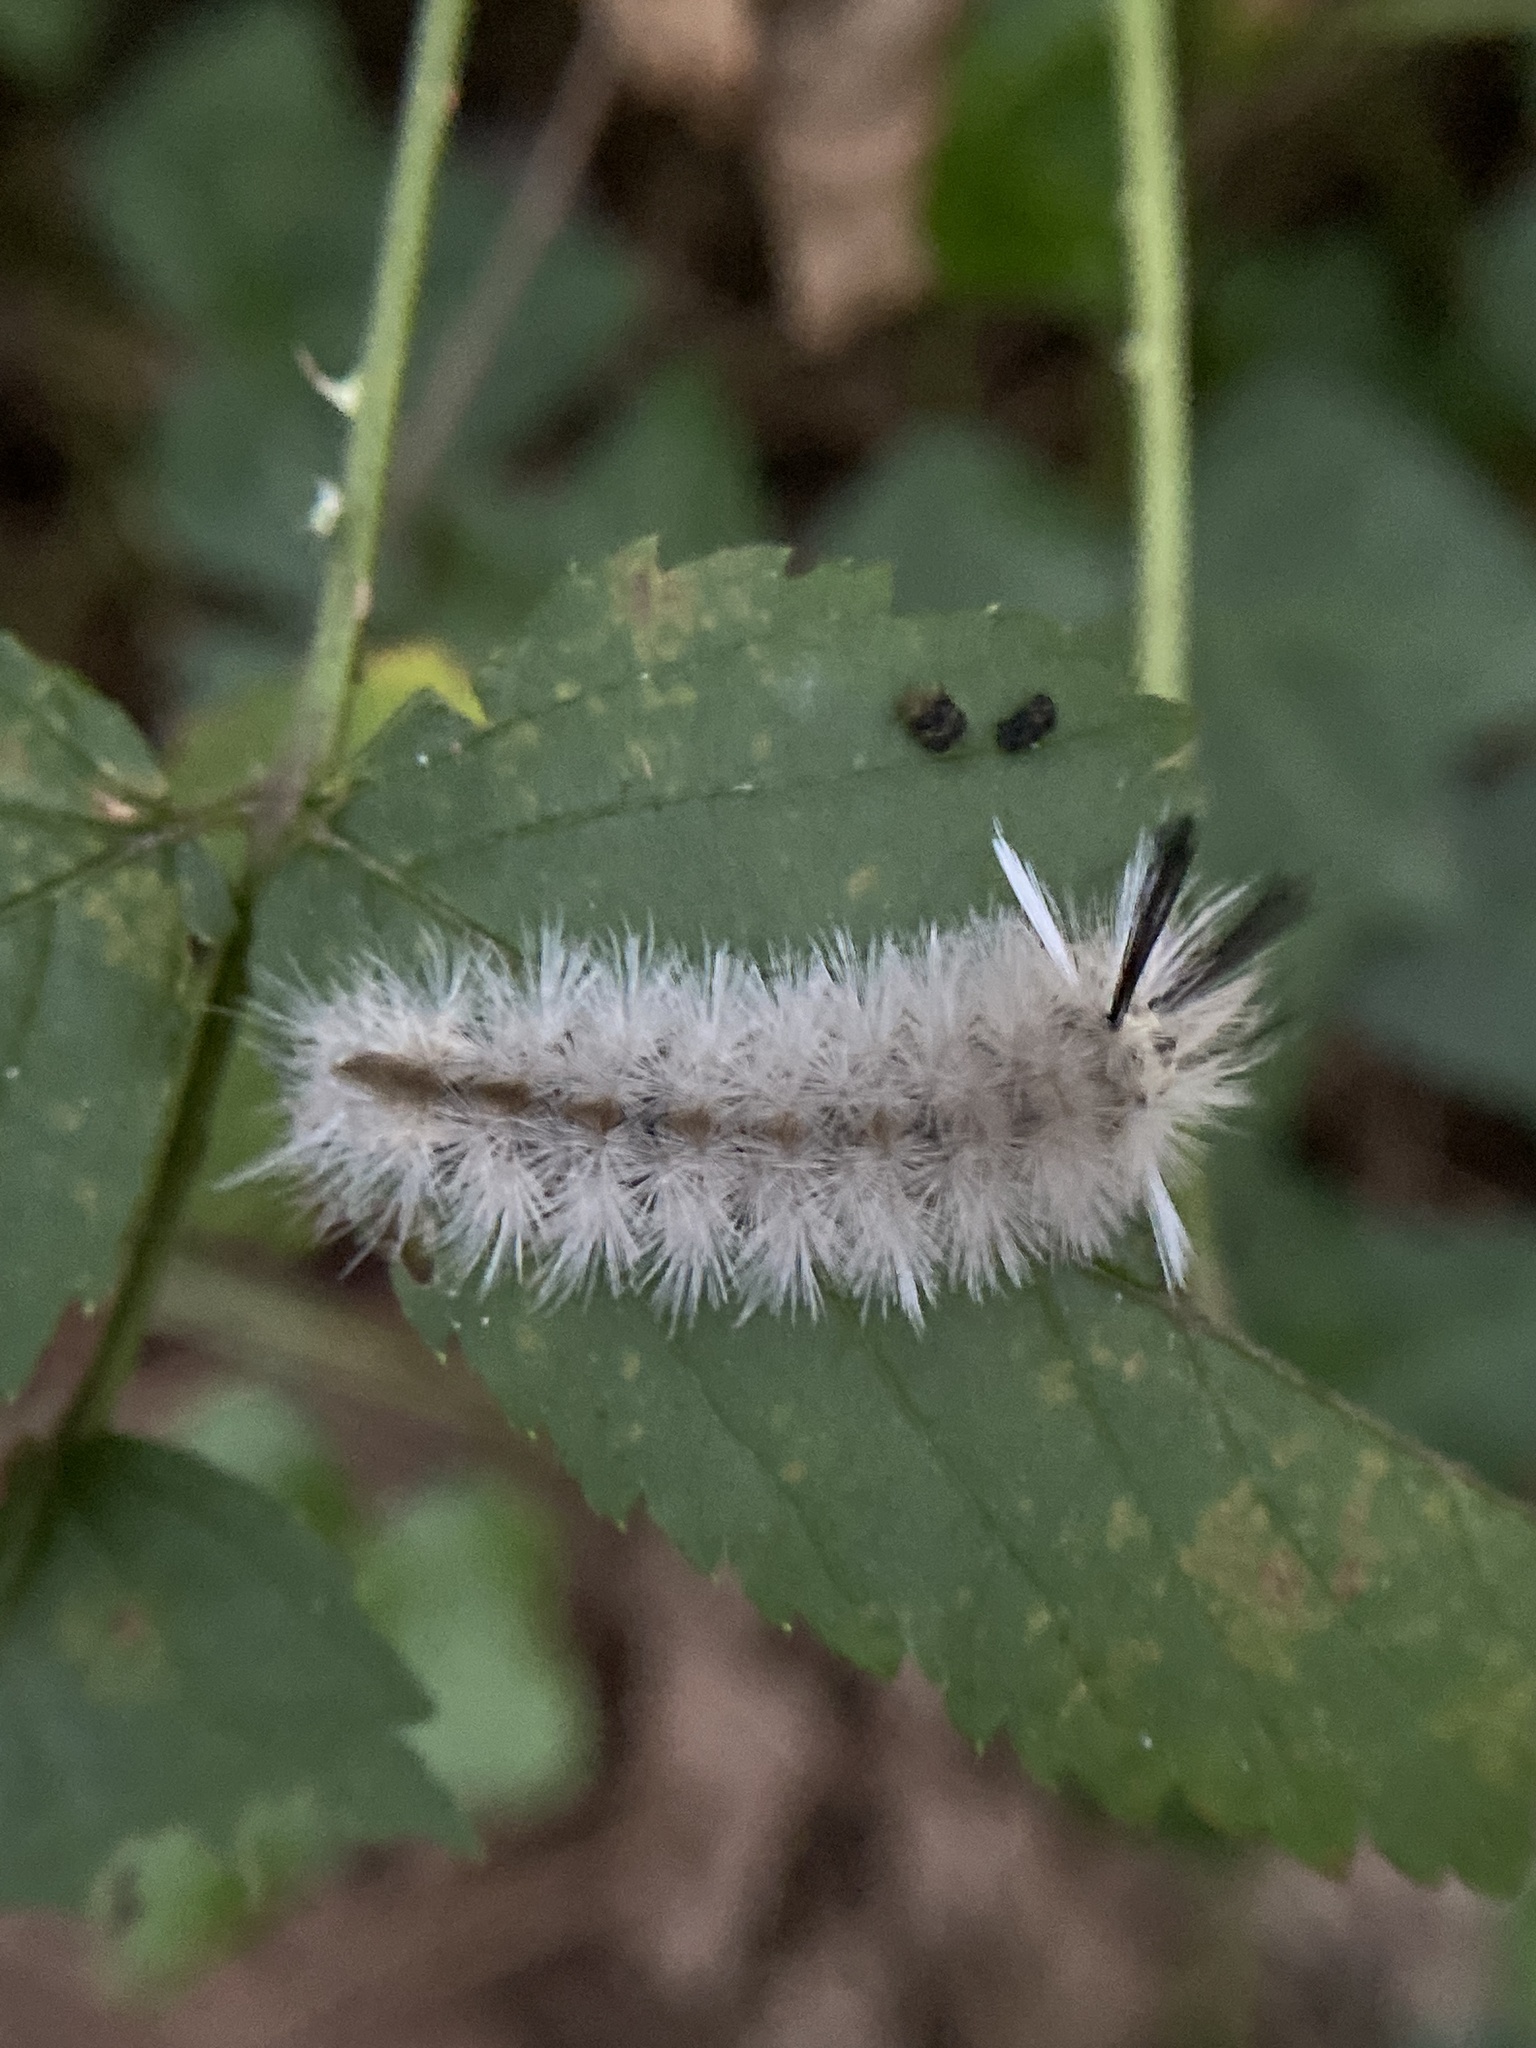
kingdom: Animalia
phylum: Arthropoda
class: Insecta
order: Lepidoptera
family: Erebidae
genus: Halysidota
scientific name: Halysidota tessellaris
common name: Banded tussock moth
